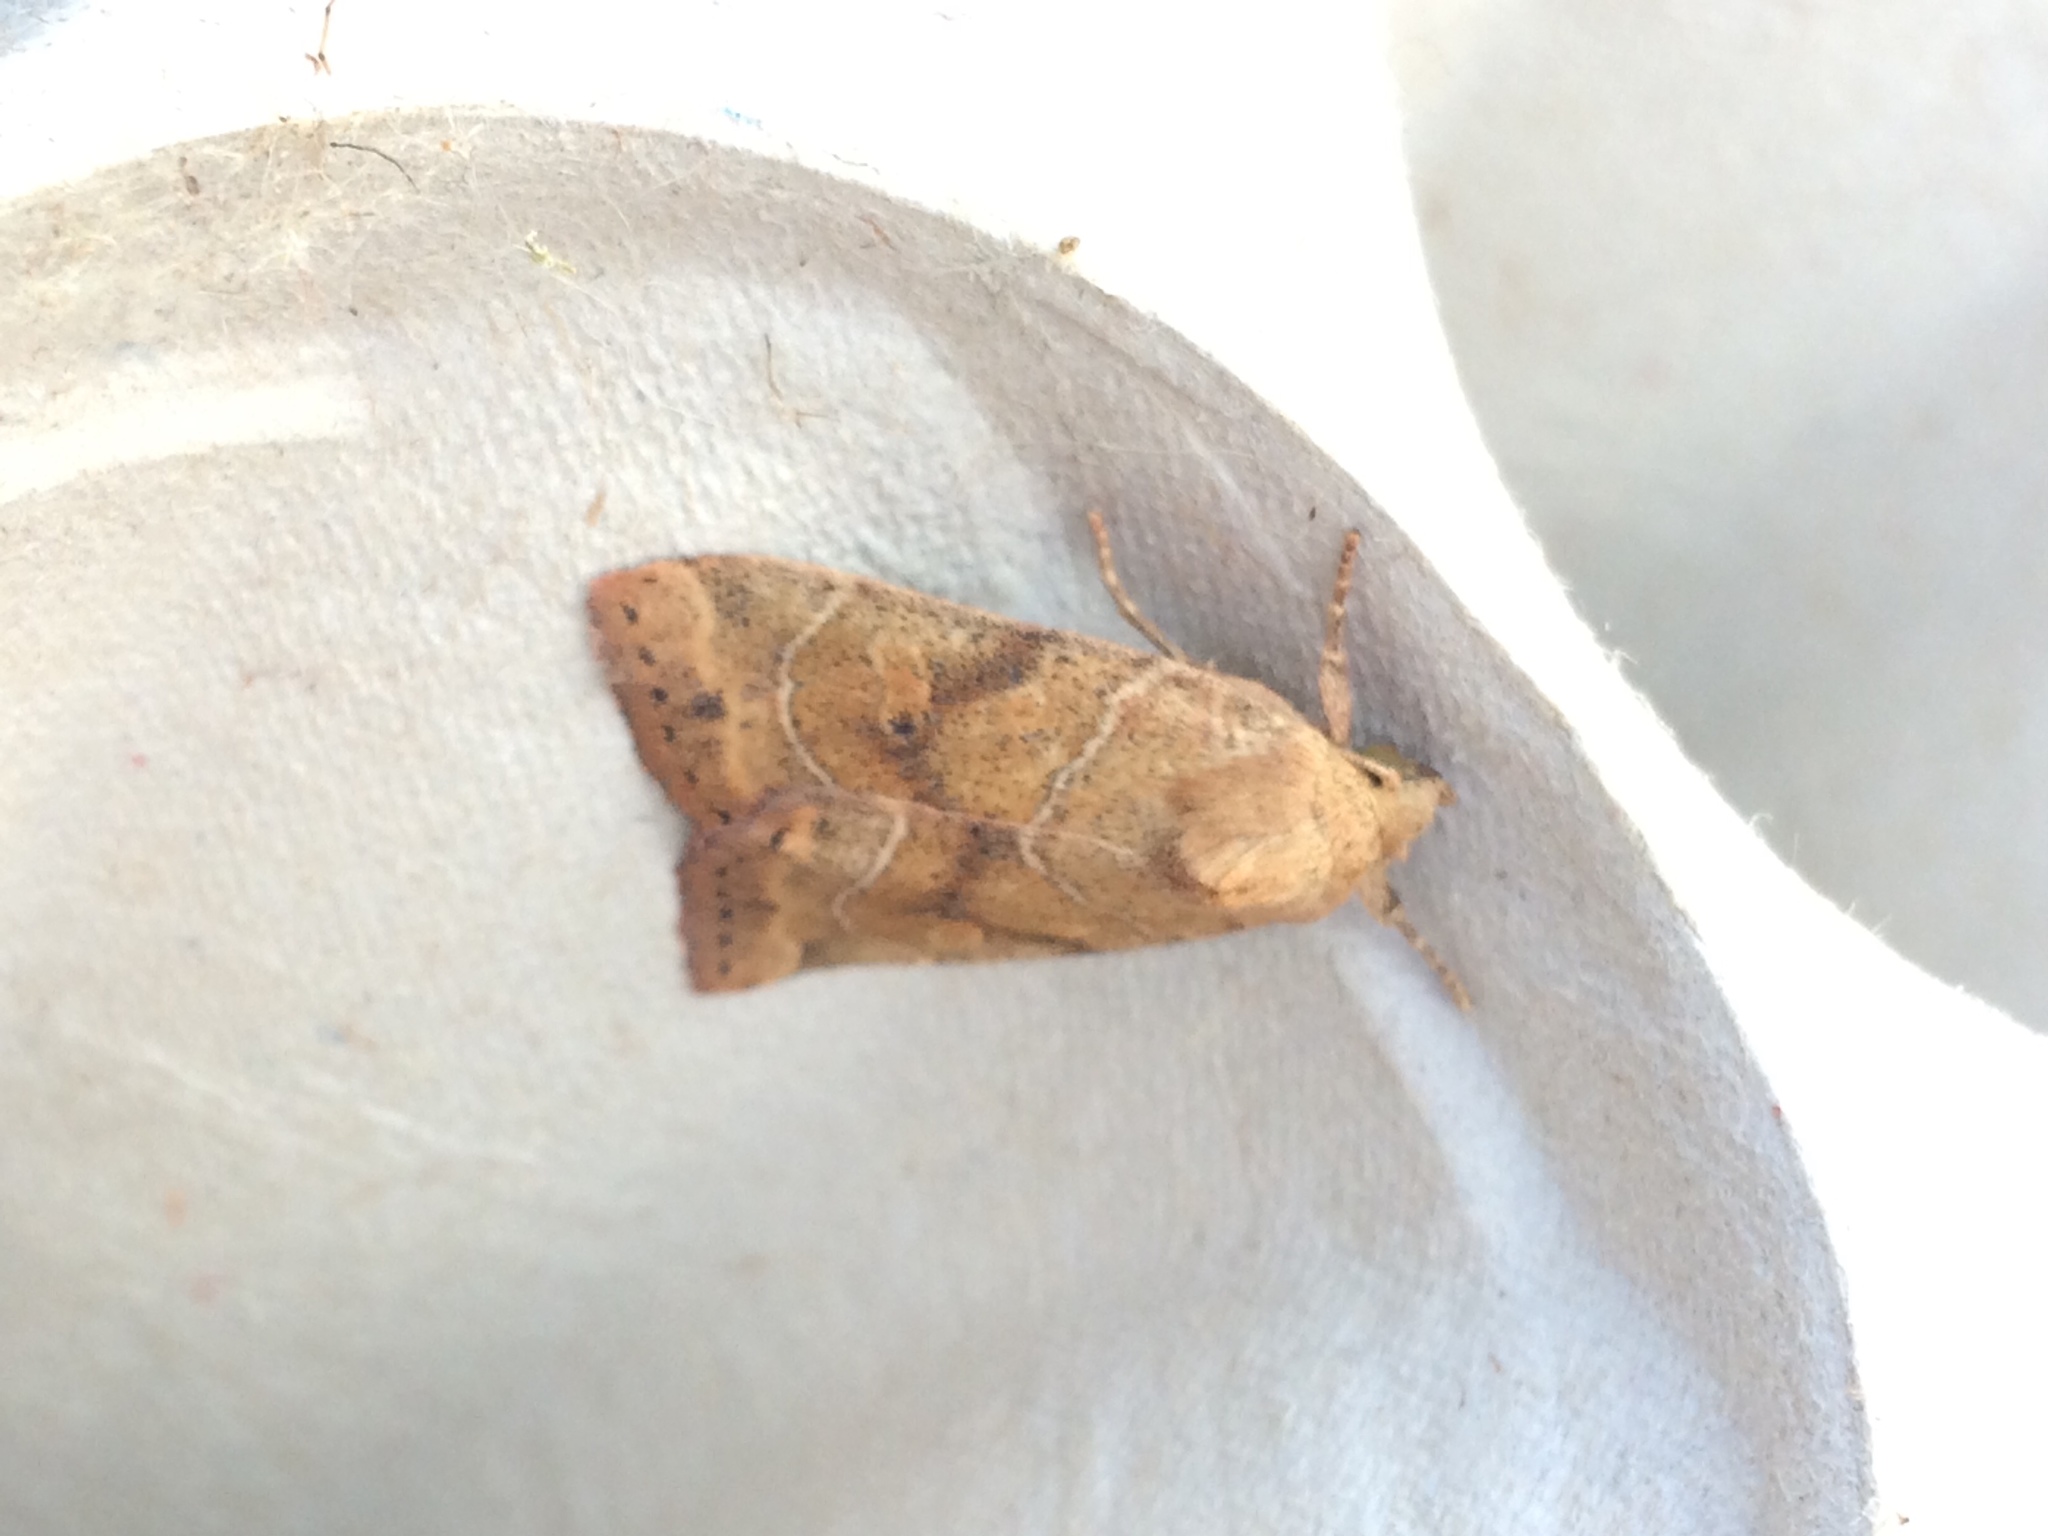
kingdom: Animalia
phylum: Arthropoda
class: Insecta
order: Lepidoptera
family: Noctuidae
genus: Cosmia
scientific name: Cosmia trapezina
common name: Dun-bar
